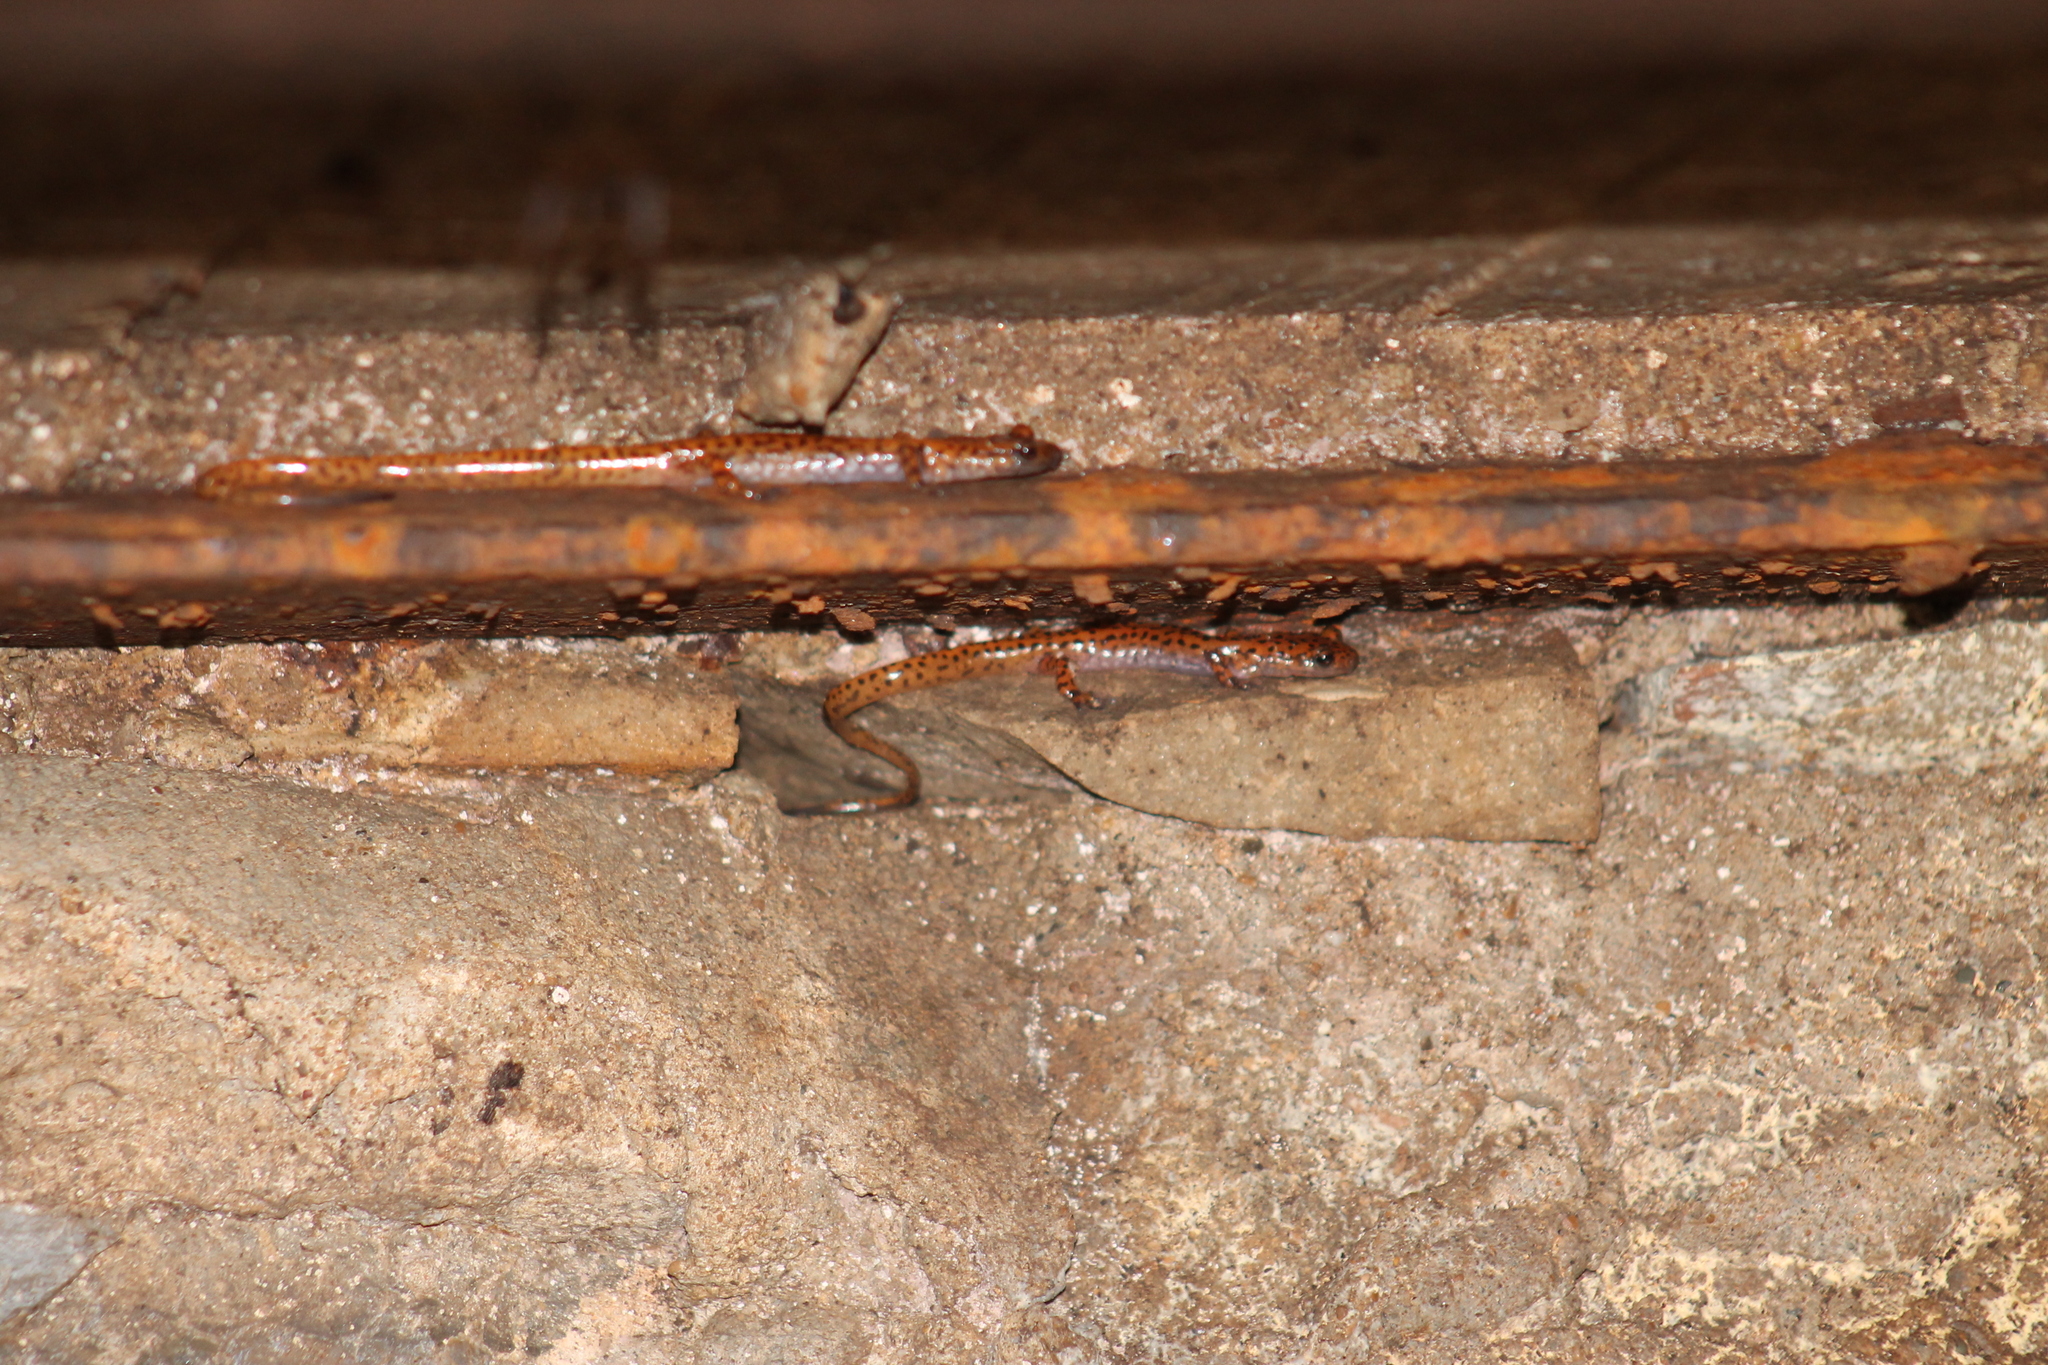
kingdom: Animalia
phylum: Chordata
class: Amphibia
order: Caudata
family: Plethodontidae
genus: Eurycea
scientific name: Eurycea lucifuga
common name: Cave salamander
